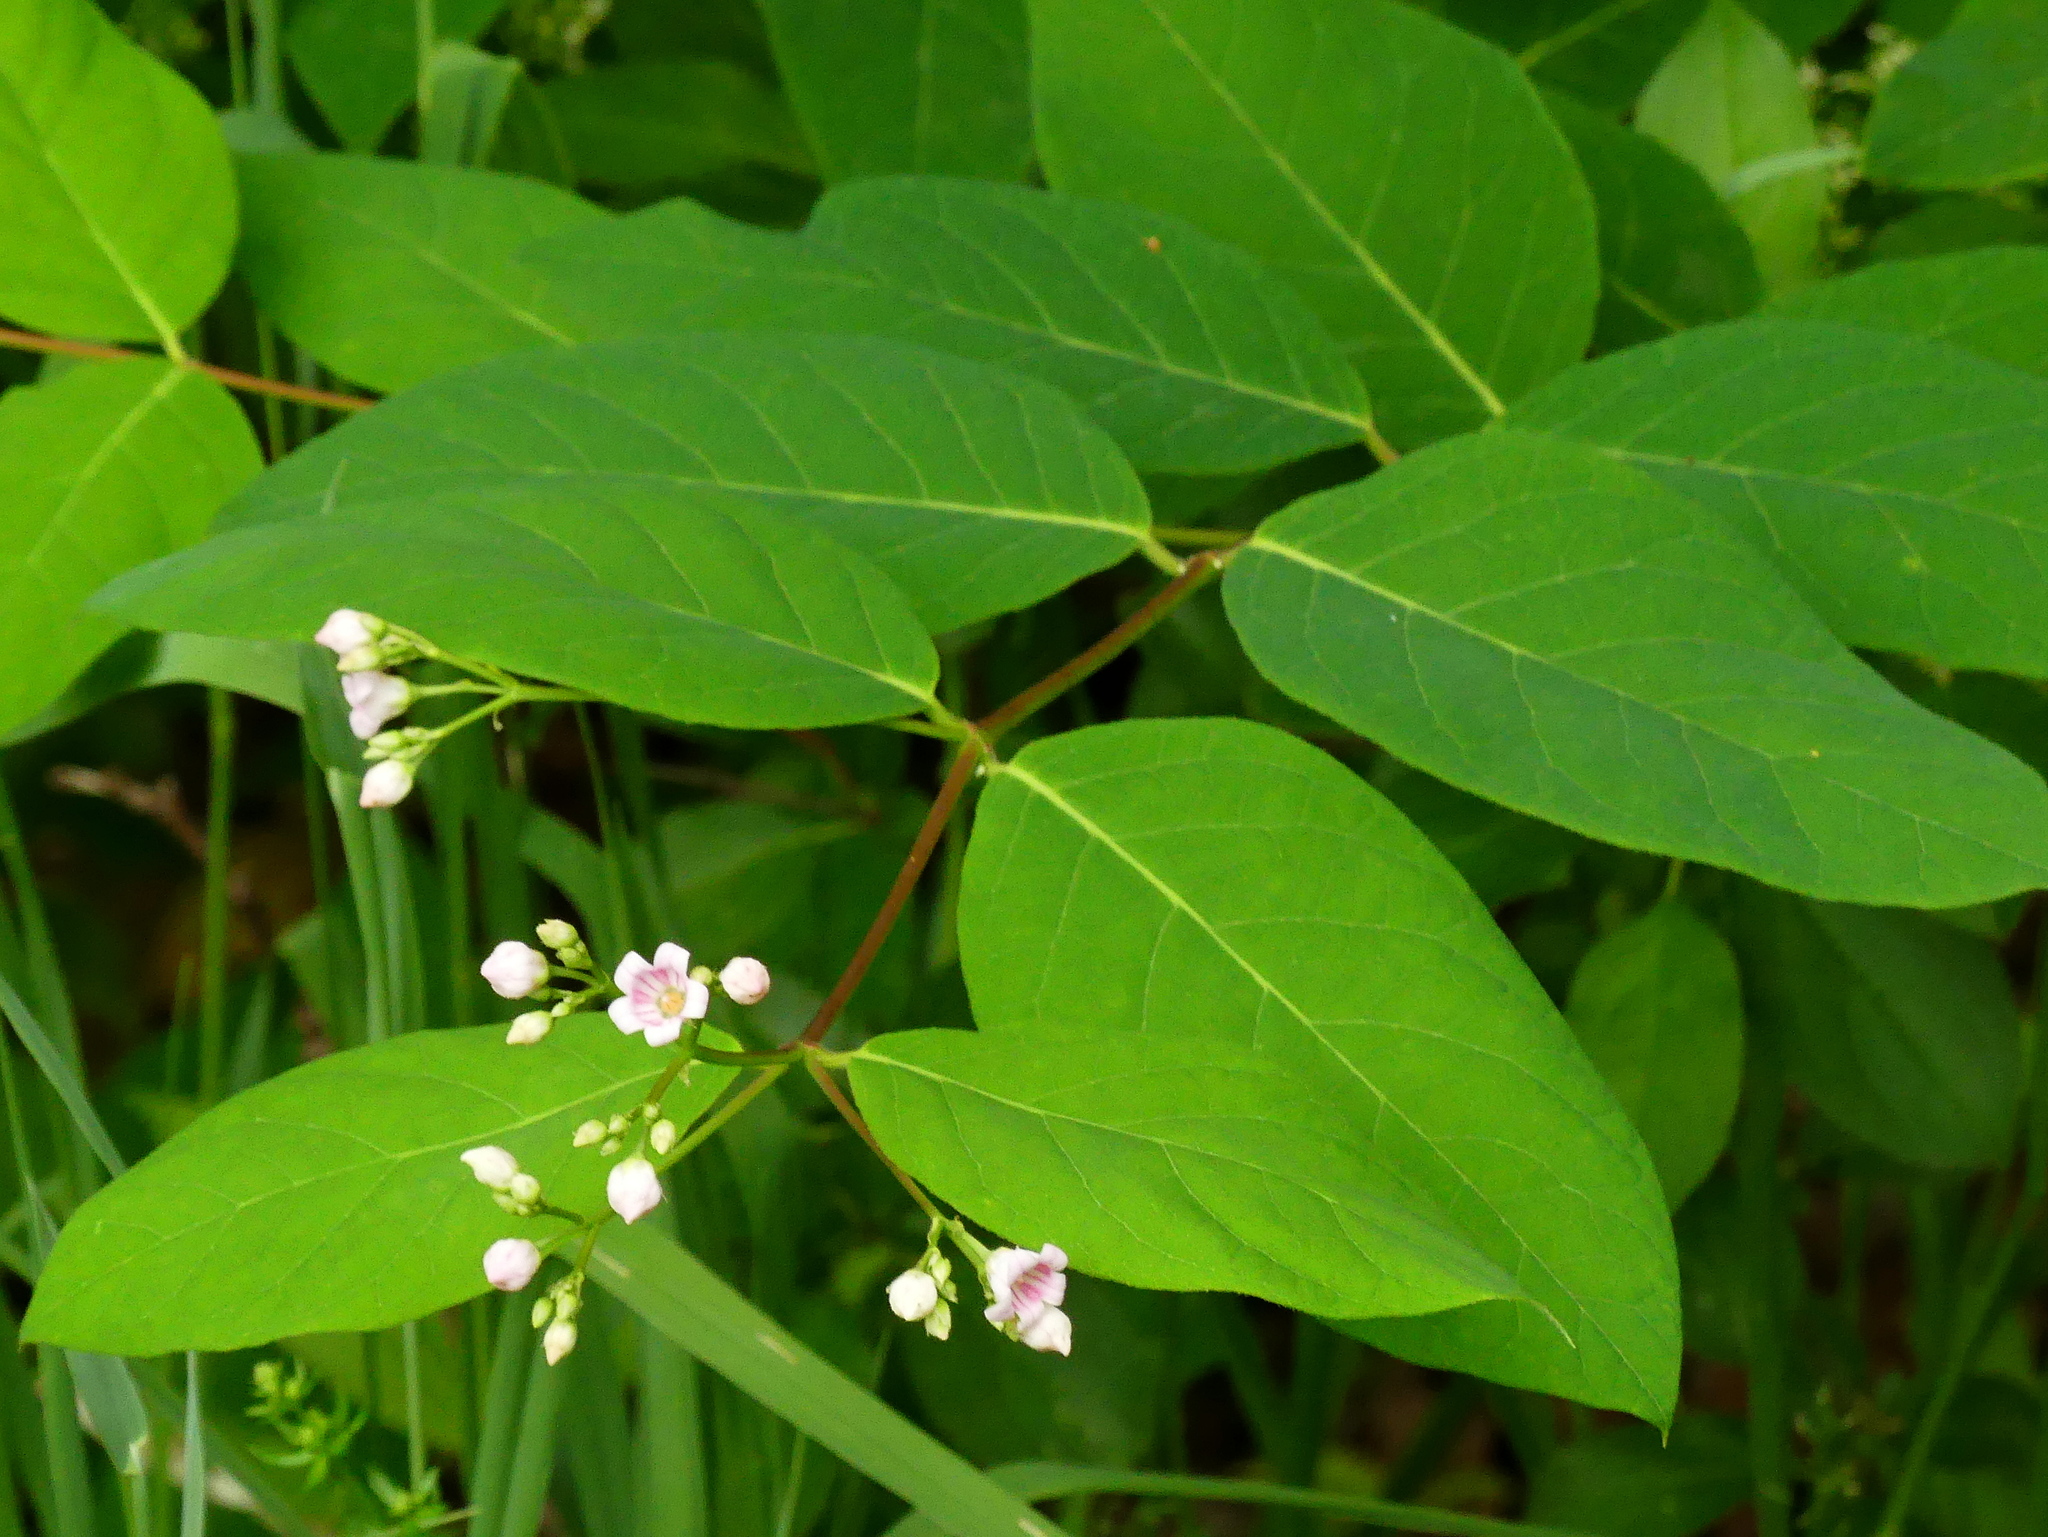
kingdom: Plantae
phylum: Tracheophyta
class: Magnoliopsida
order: Gentianales
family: Apocynaceae
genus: Apocynum
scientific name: Apocynum androsaemifolium
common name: Spreading dogbane
